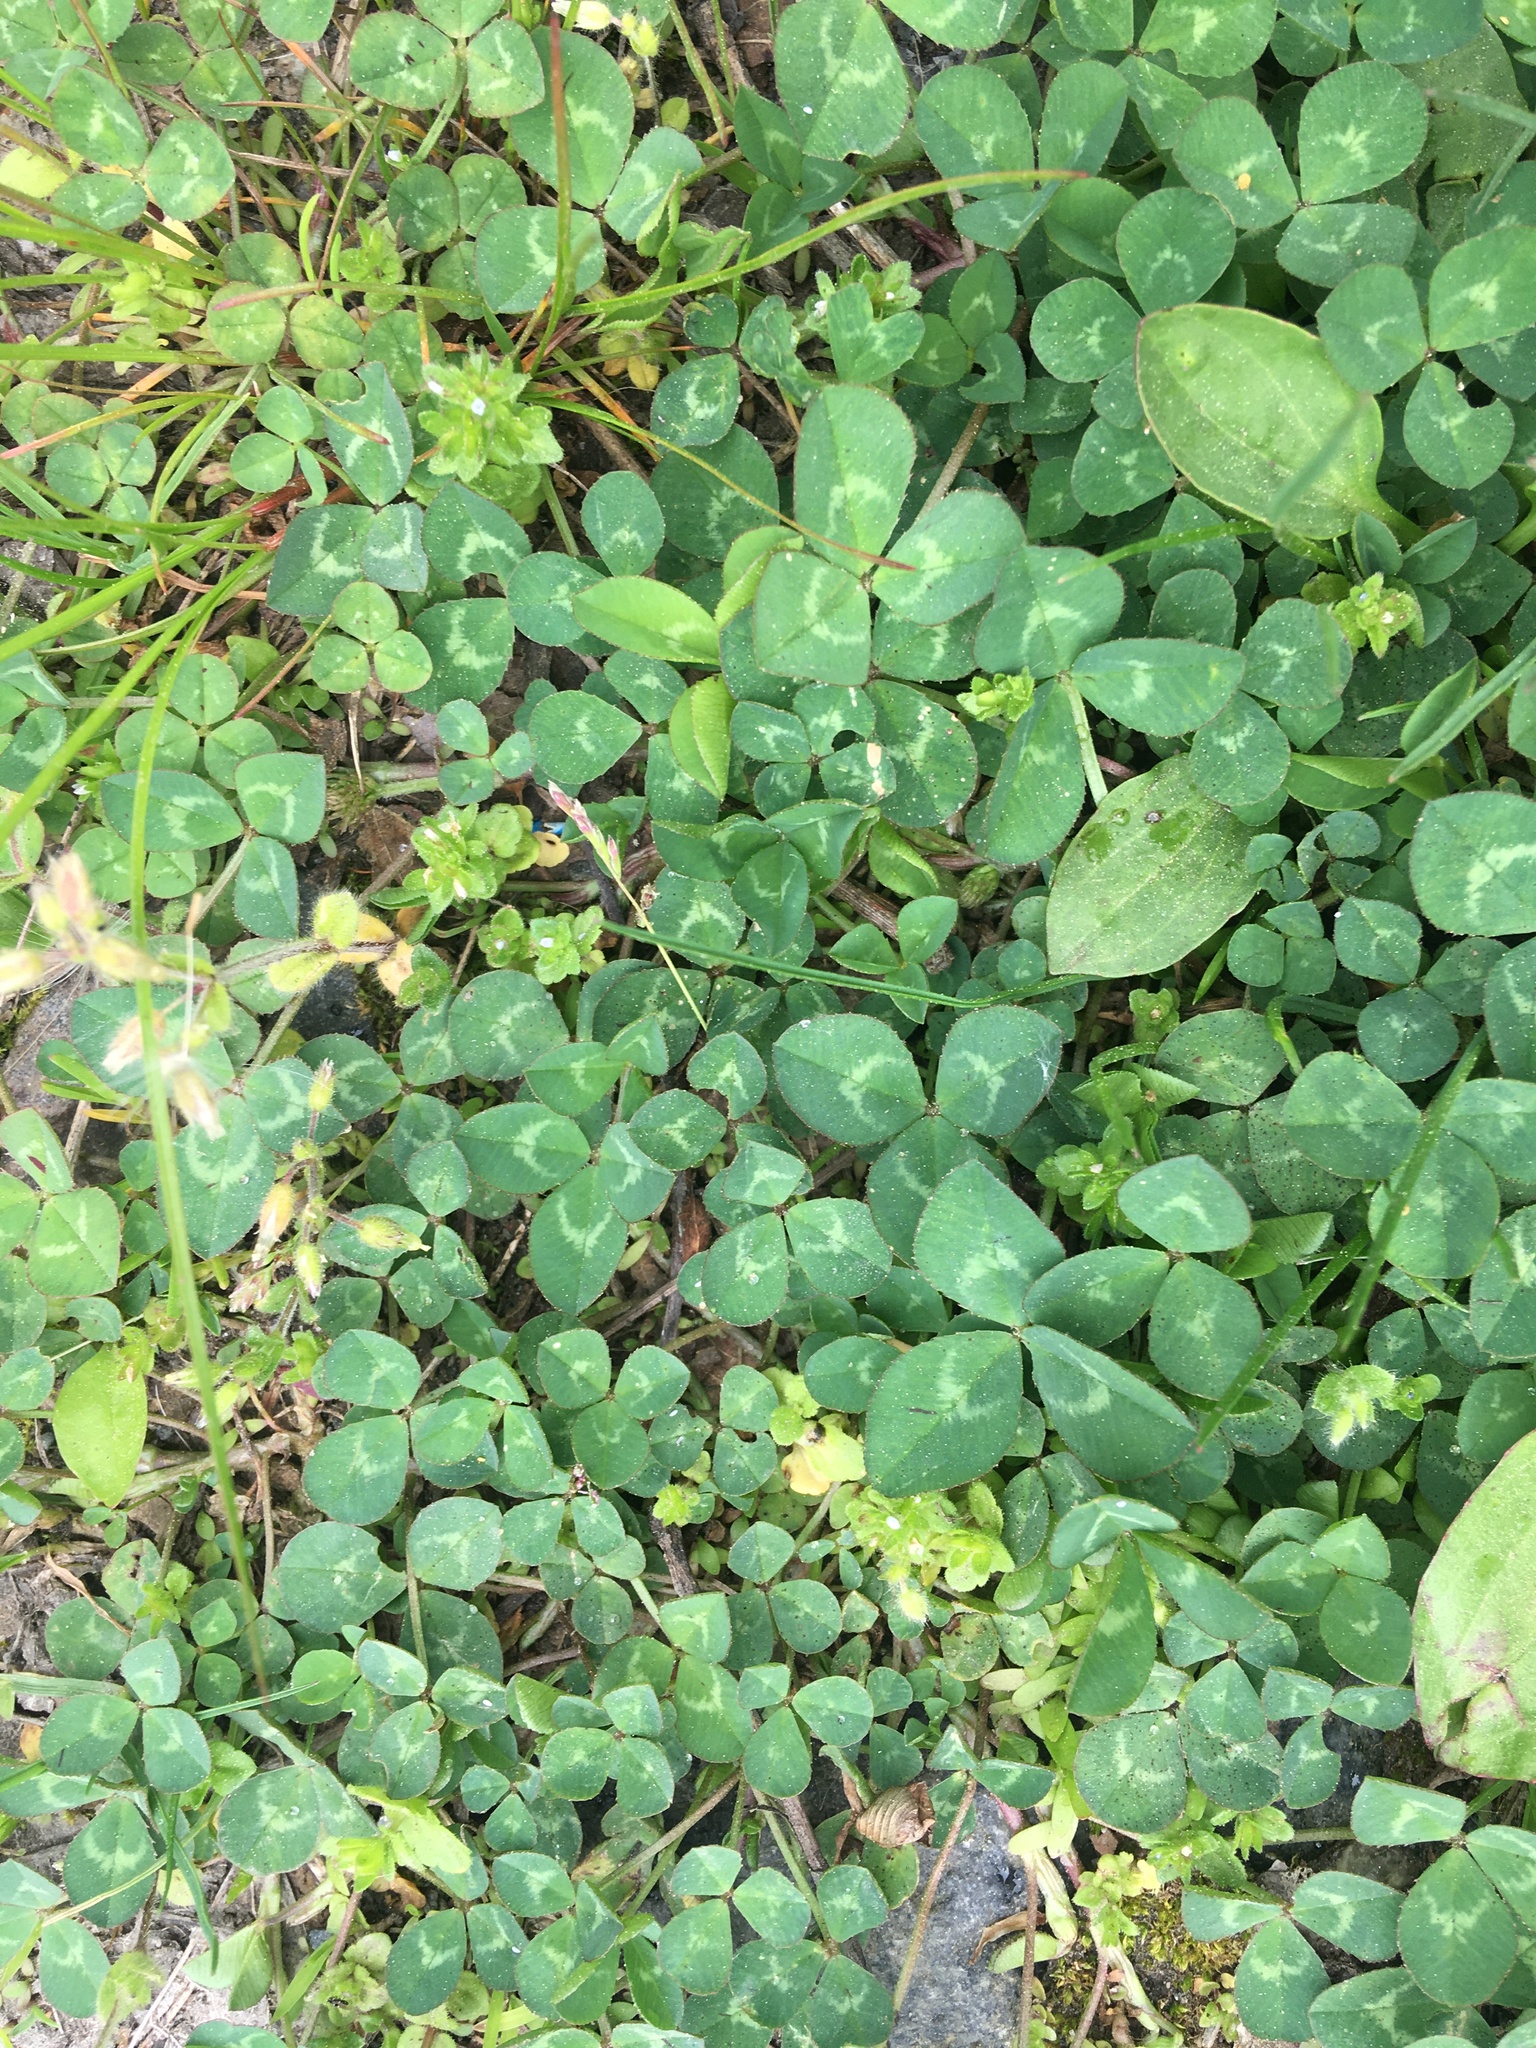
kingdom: Plantae
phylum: Tracheophyta
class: Magnoliopsida
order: Fabales
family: Fabaceae
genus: Trifolium
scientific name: Trifolium repens
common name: White clover
